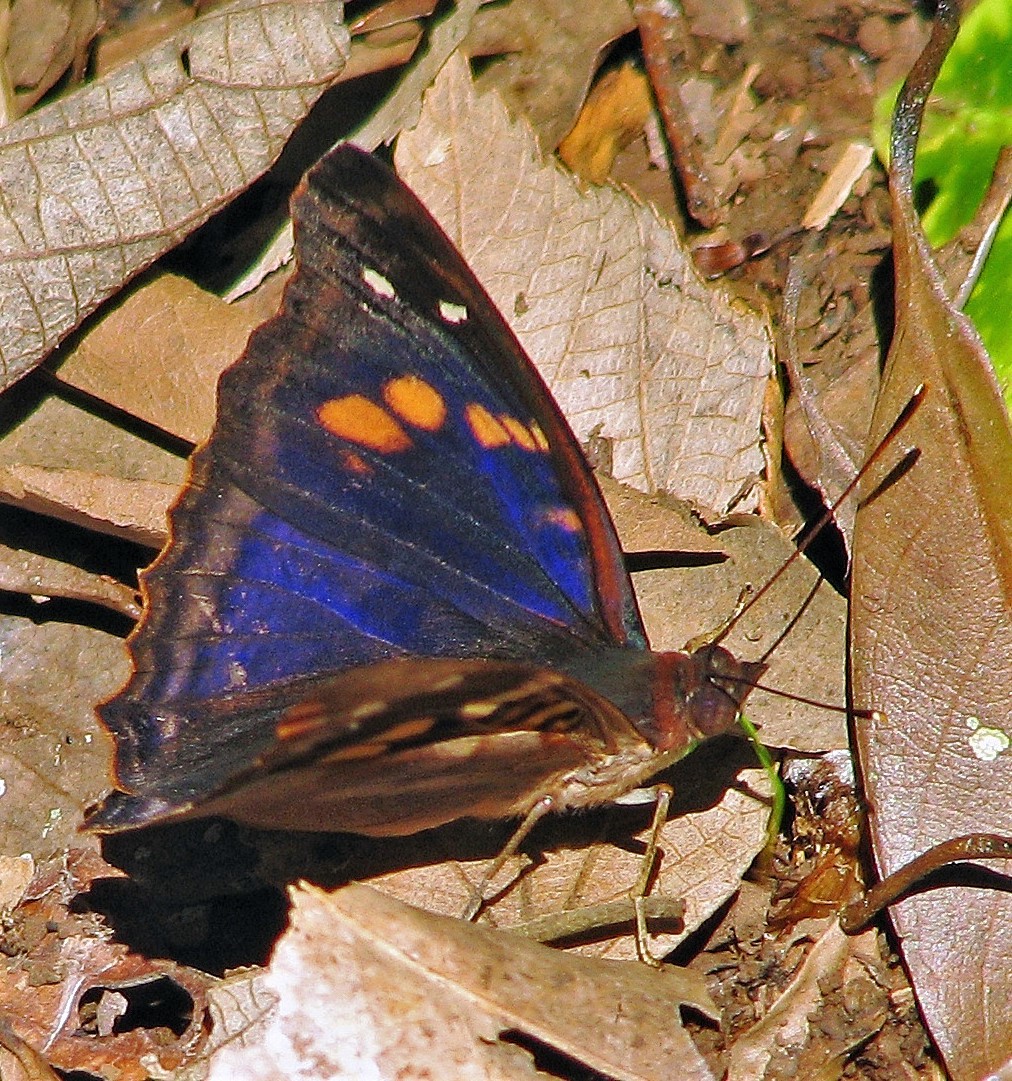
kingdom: Animalia
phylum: Arthropoda
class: Insecta
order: Lepidoptera
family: Nymphalidae
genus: Doxocopa
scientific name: Doxocopa agathina
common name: Agathina emperor
